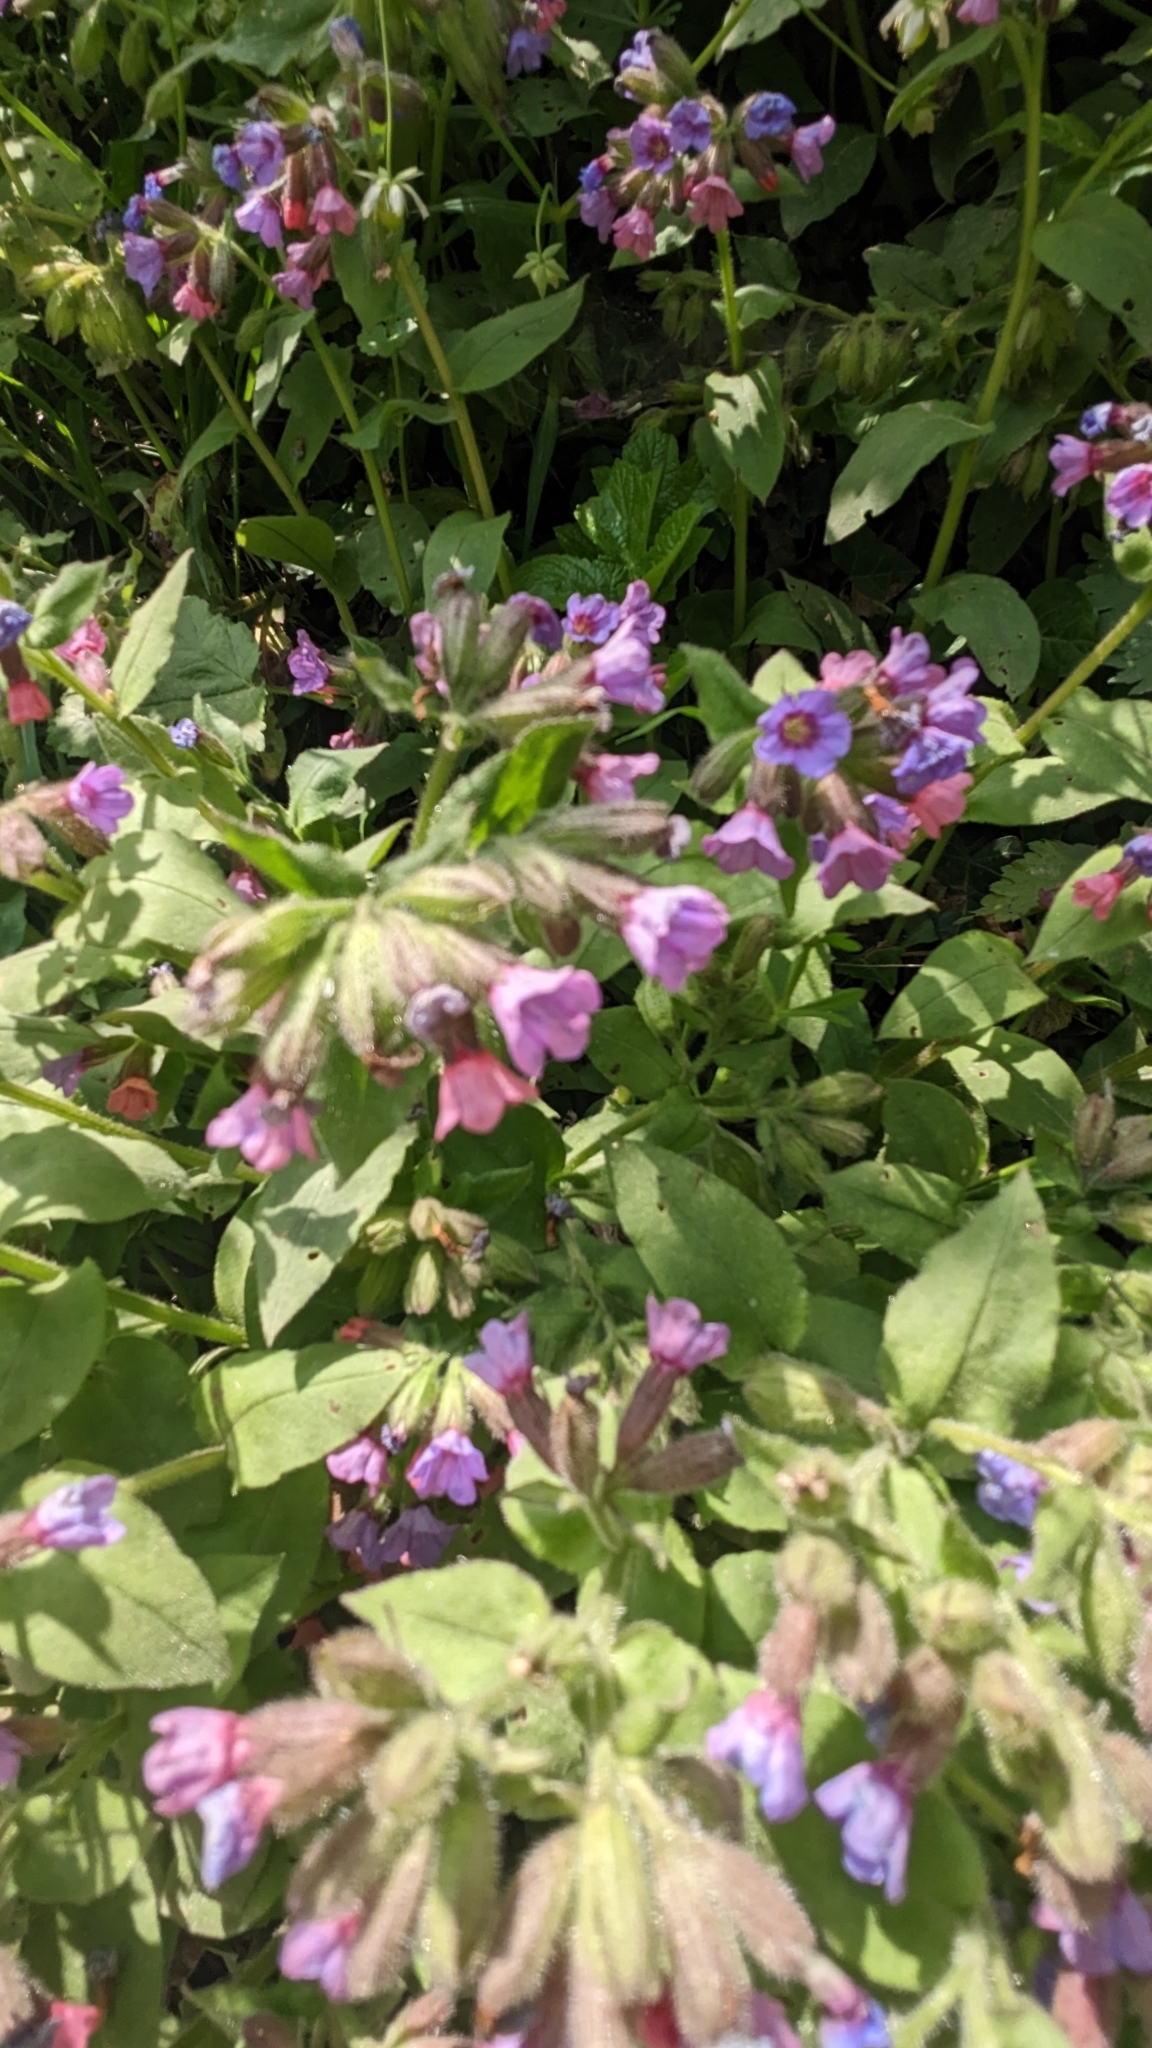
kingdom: Plantae
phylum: Tracheophyta
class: Magnoliopsida
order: Boraginales
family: Boraginaceae
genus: Pulmonaria
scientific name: Pulmonaria officinalis
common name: Lungwort
